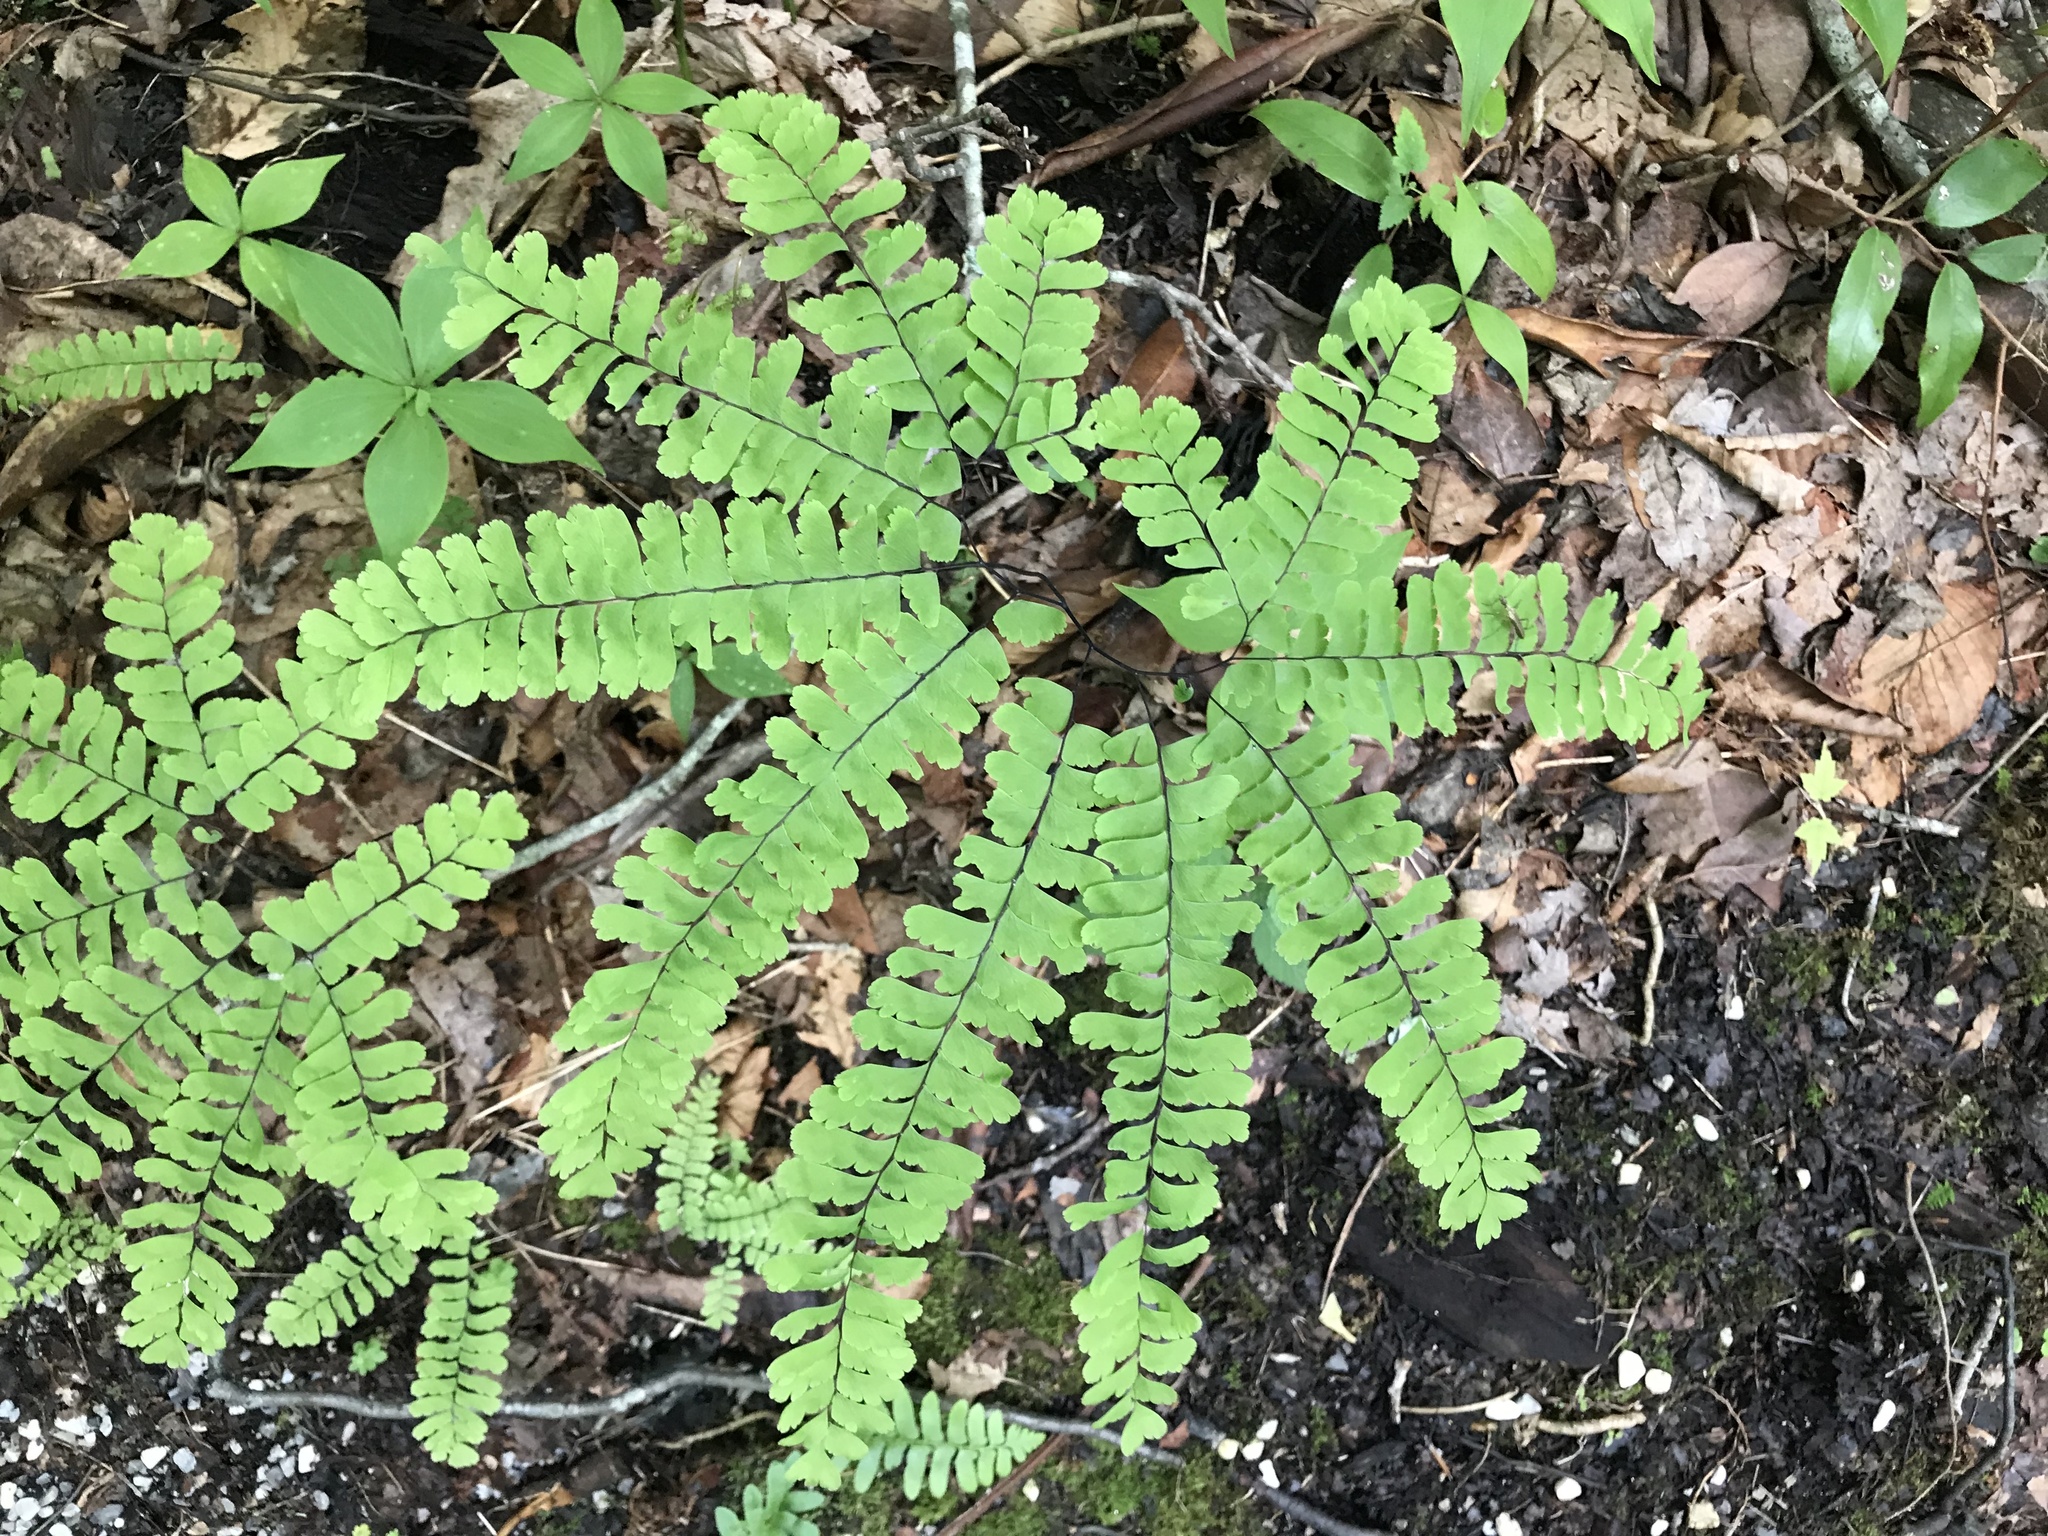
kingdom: Plantae
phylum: Tracheophyta
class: Polypodiopsida
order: Polypodiales
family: Pteridaceae
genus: Adiantum
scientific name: Adiantum pedatum
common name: Five-finger fern
